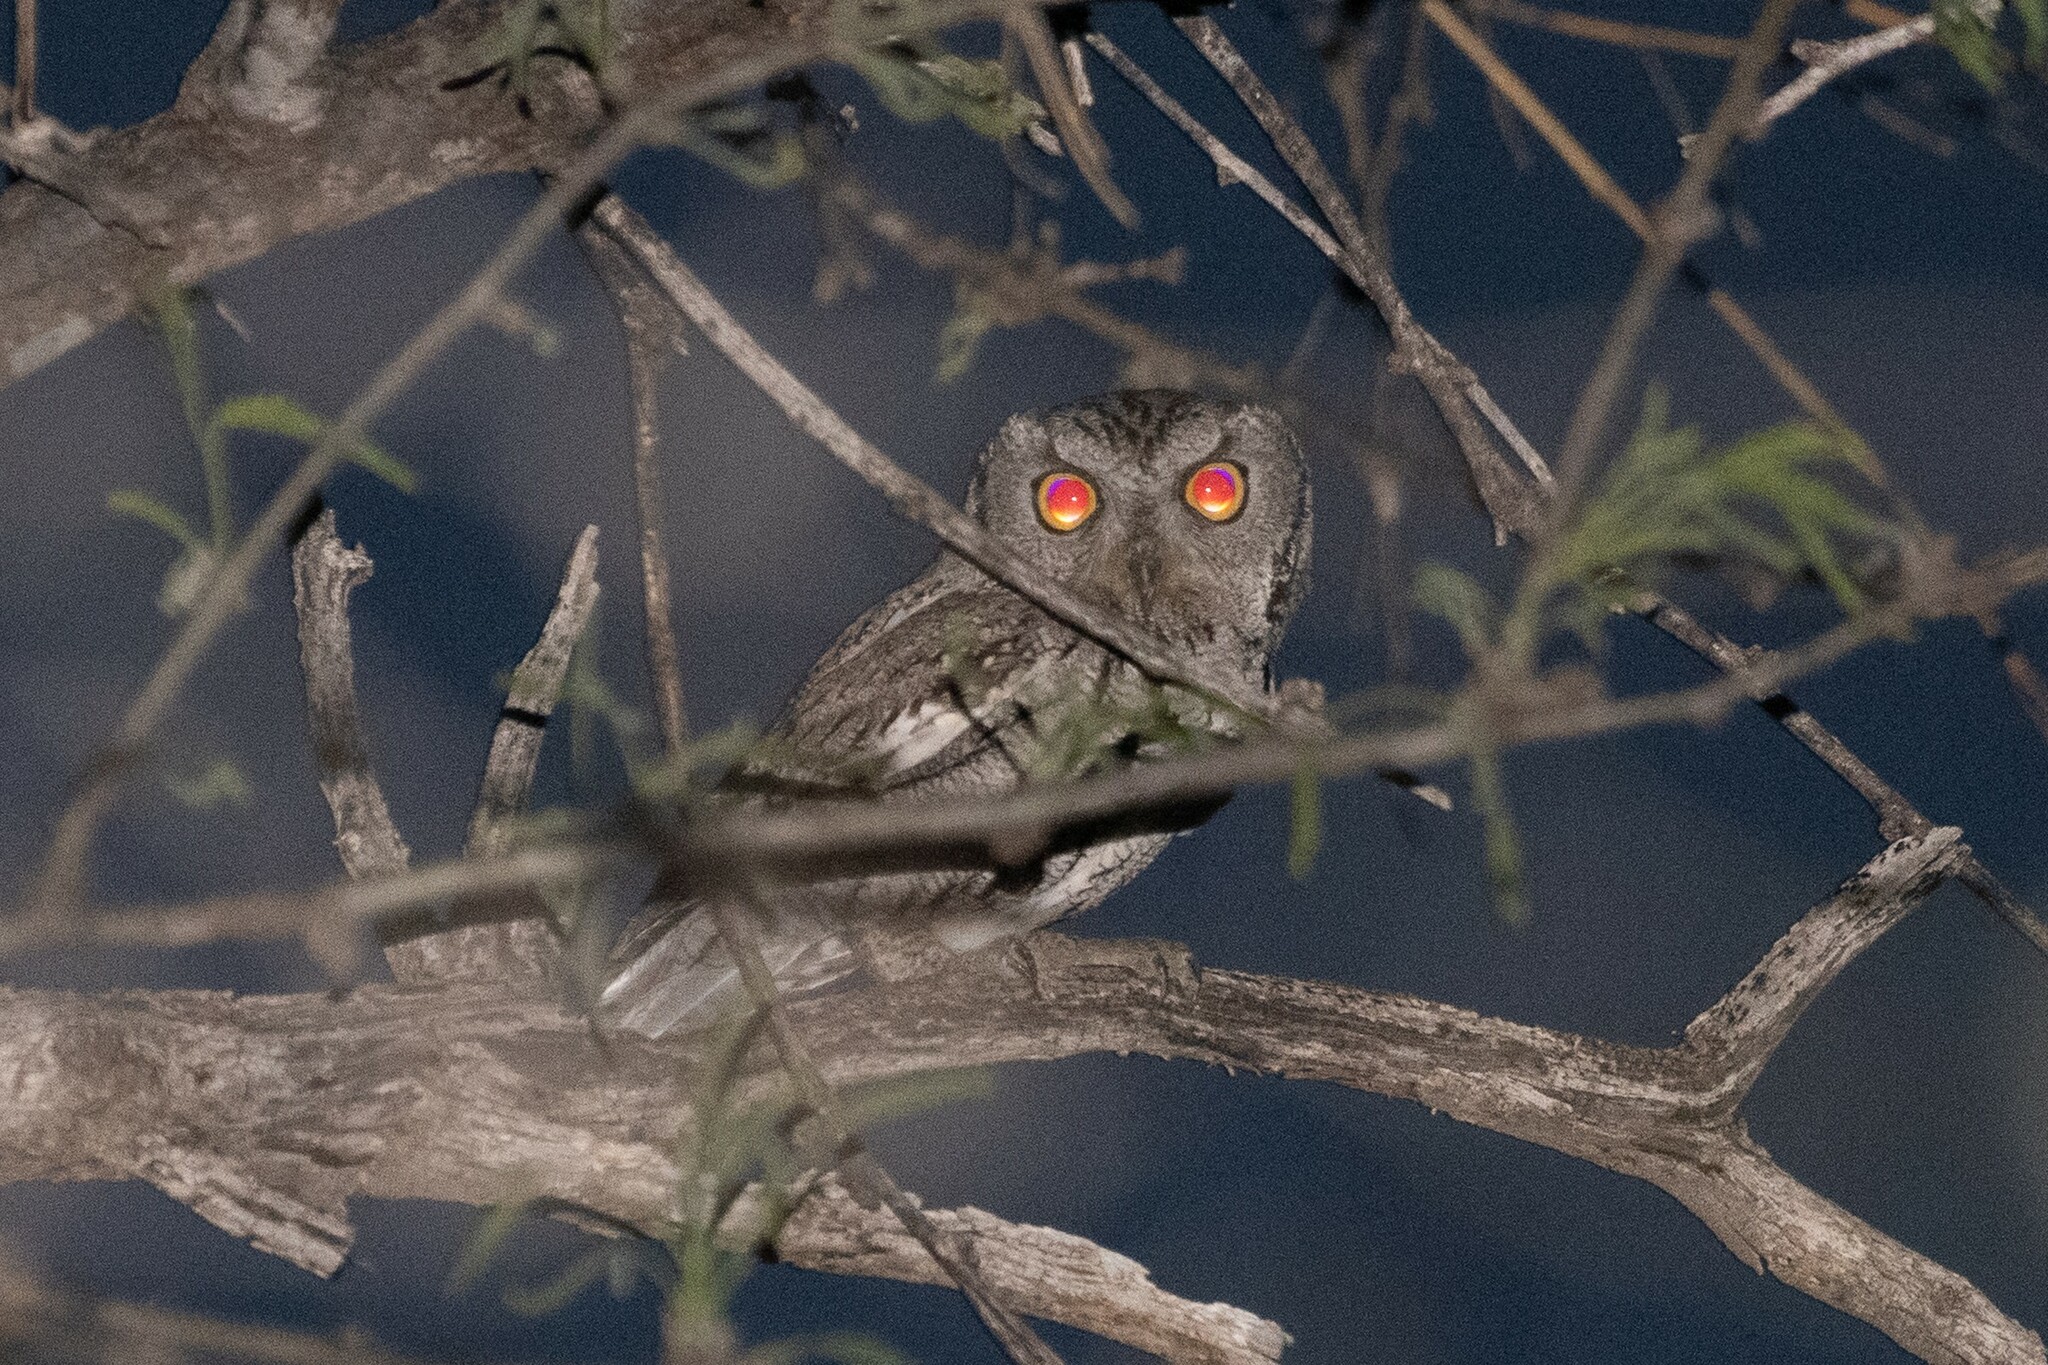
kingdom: Animalia
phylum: Chordata
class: Aves
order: Strigiformes
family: Strigidae
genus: Megascops
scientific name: Megascops kennicottii
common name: Western screech-owl
